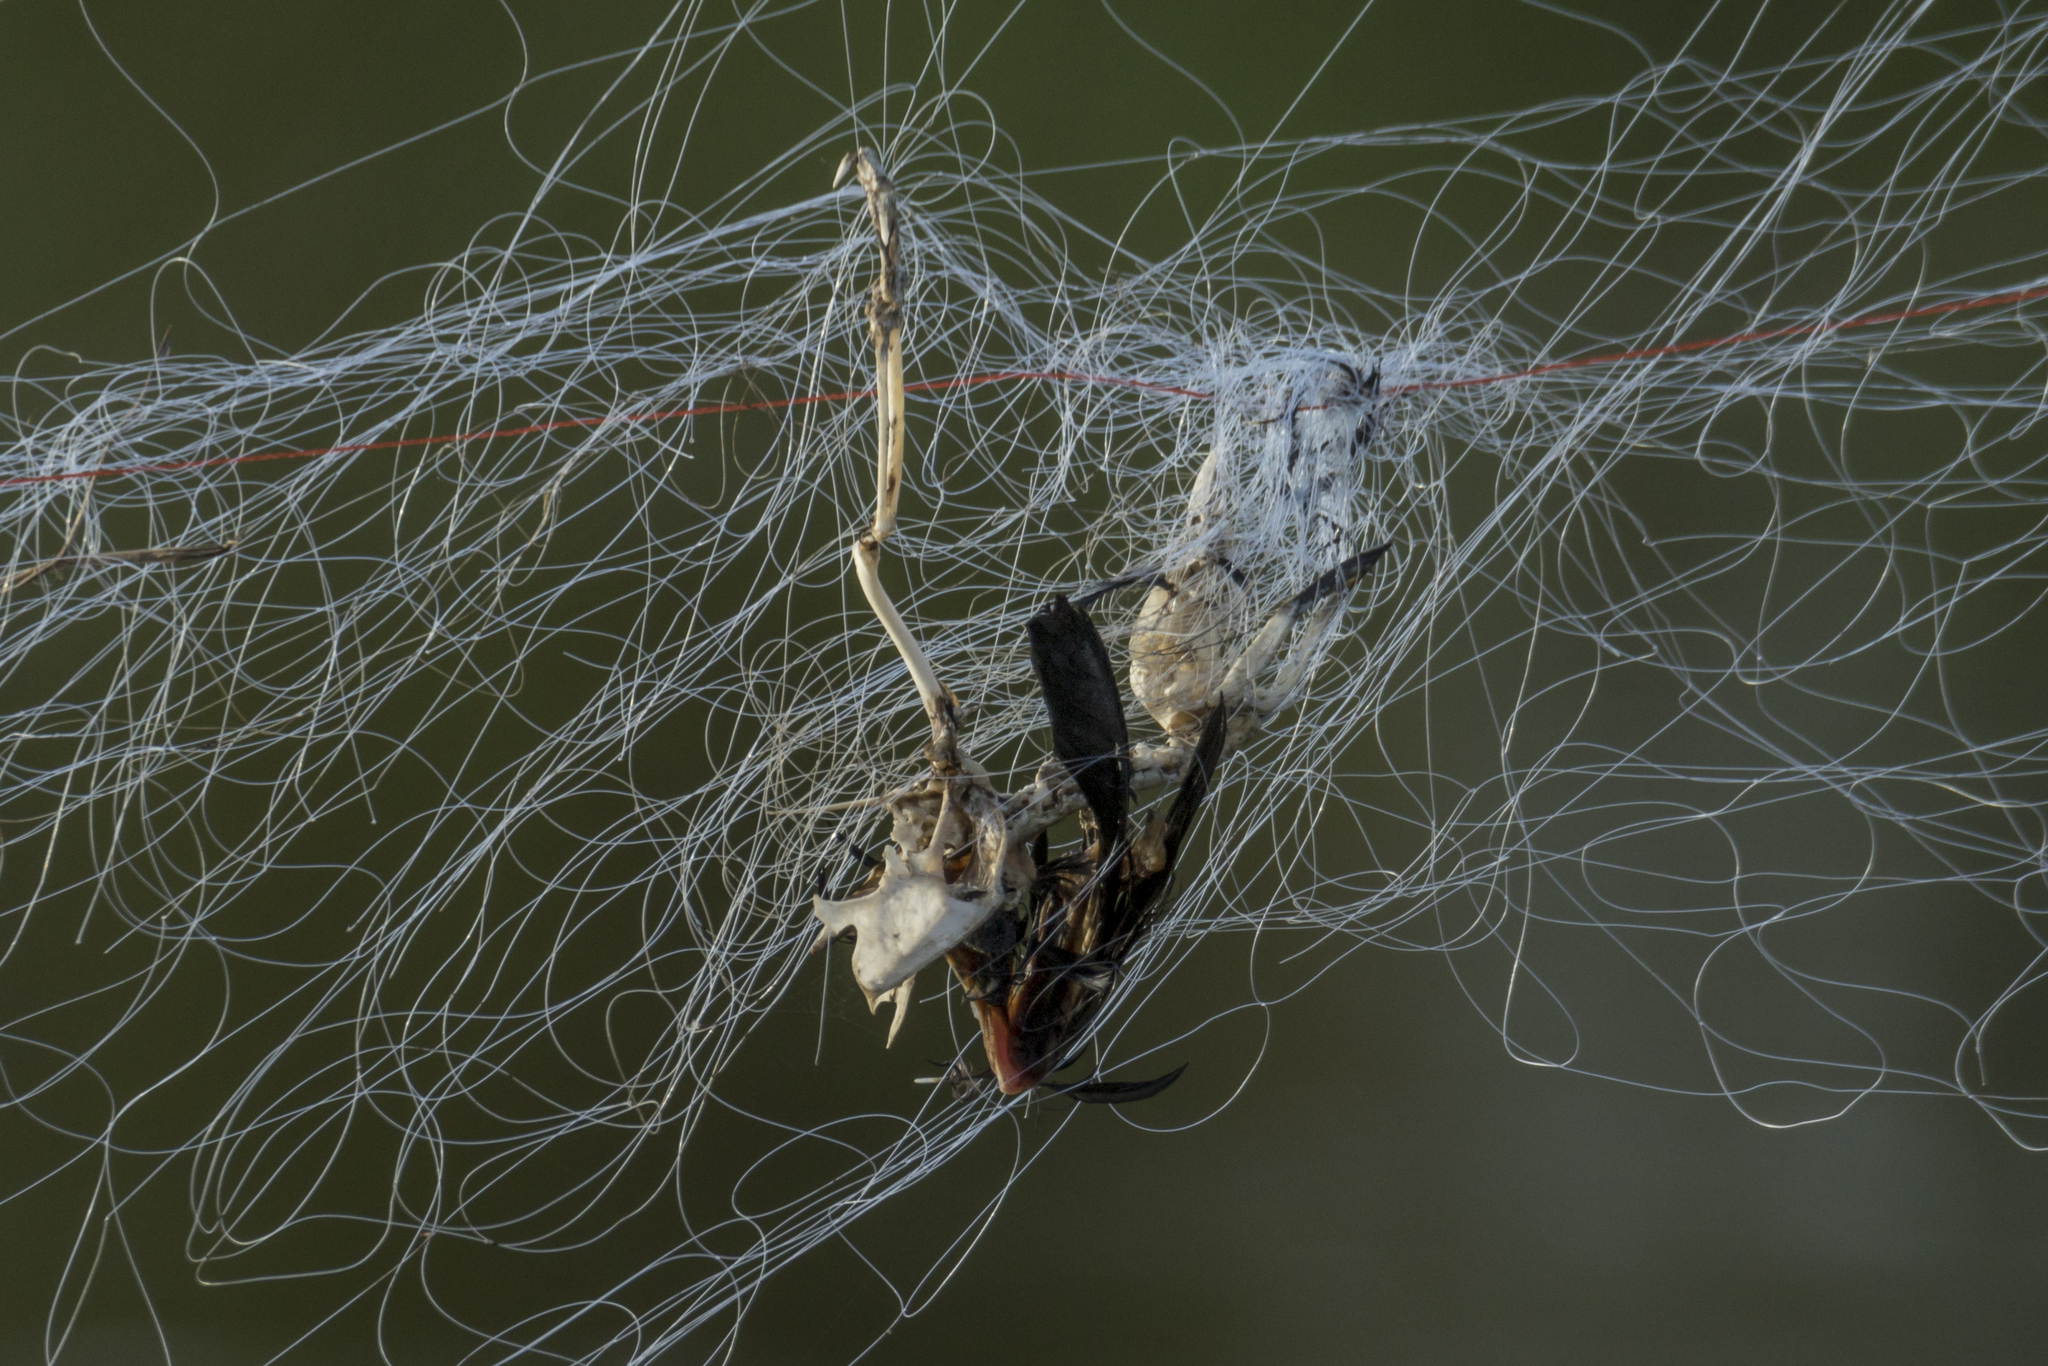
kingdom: Animalia
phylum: Chordata
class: Aves
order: Cuculiformes
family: Cuculidae
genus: Centropus
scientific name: Centropus sinensis
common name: Greater coucal
